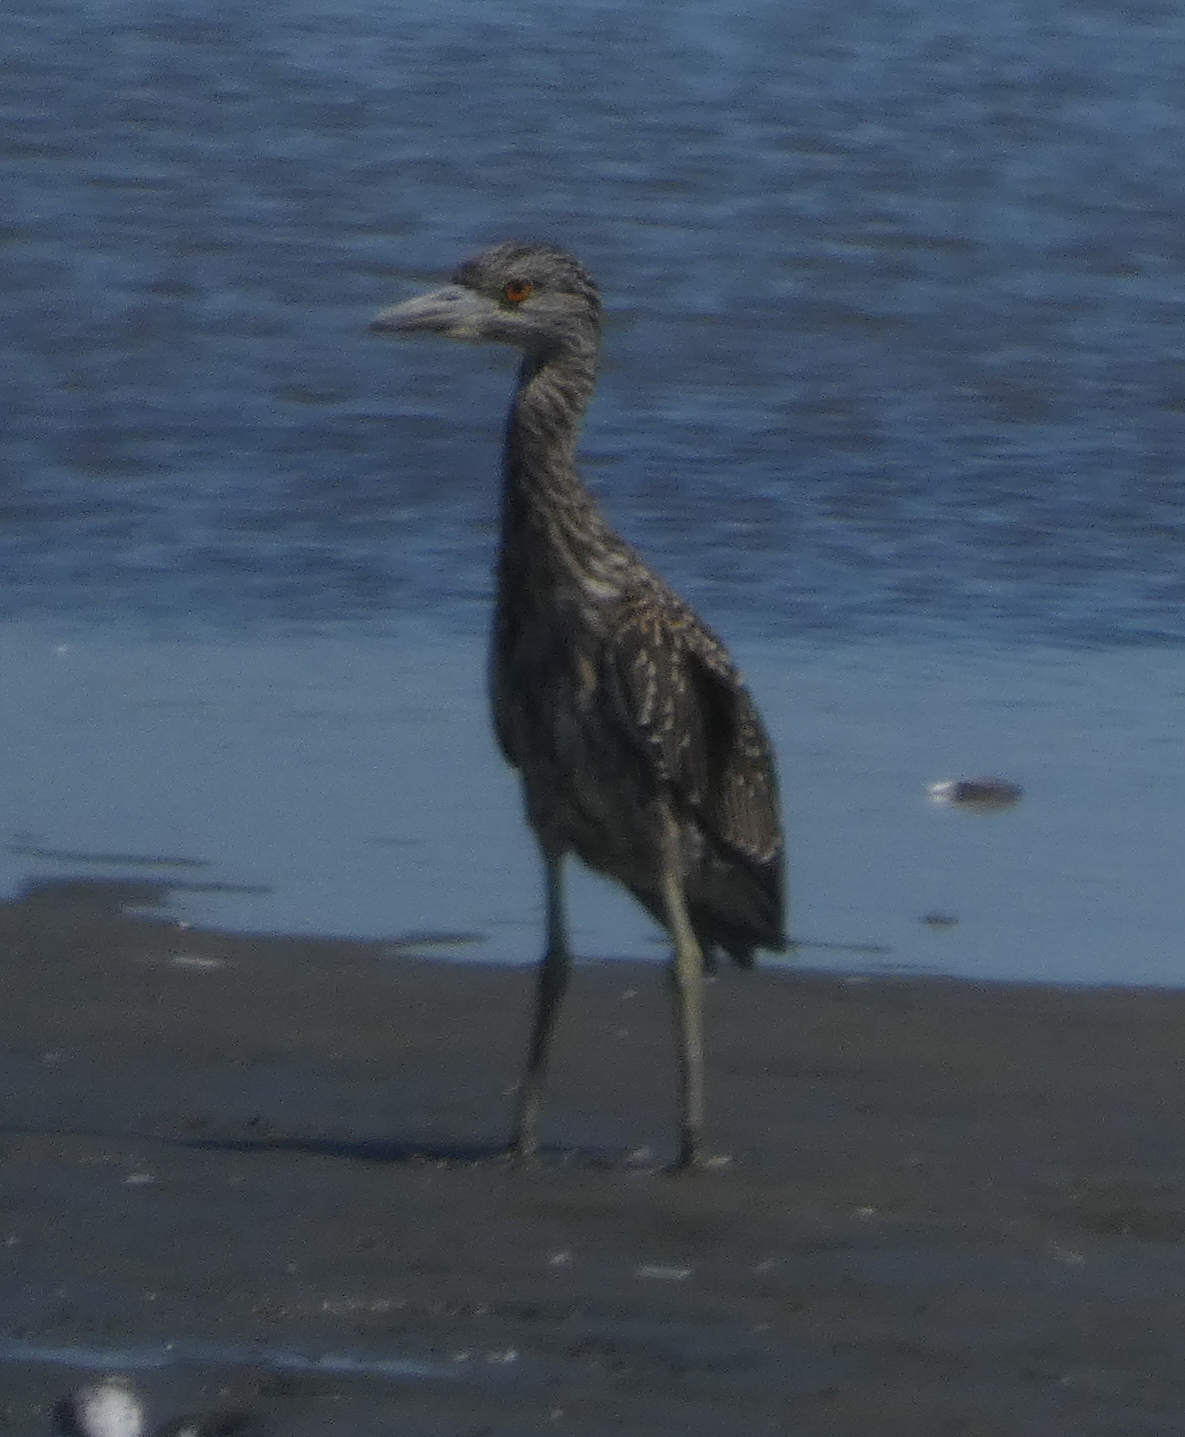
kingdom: Animalia
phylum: Chordata
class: Aves
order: Pelecaniformes
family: Ardeidae
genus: Nyctanassa
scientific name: Nyctanassa violacea
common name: Yellow-crowned night heron
